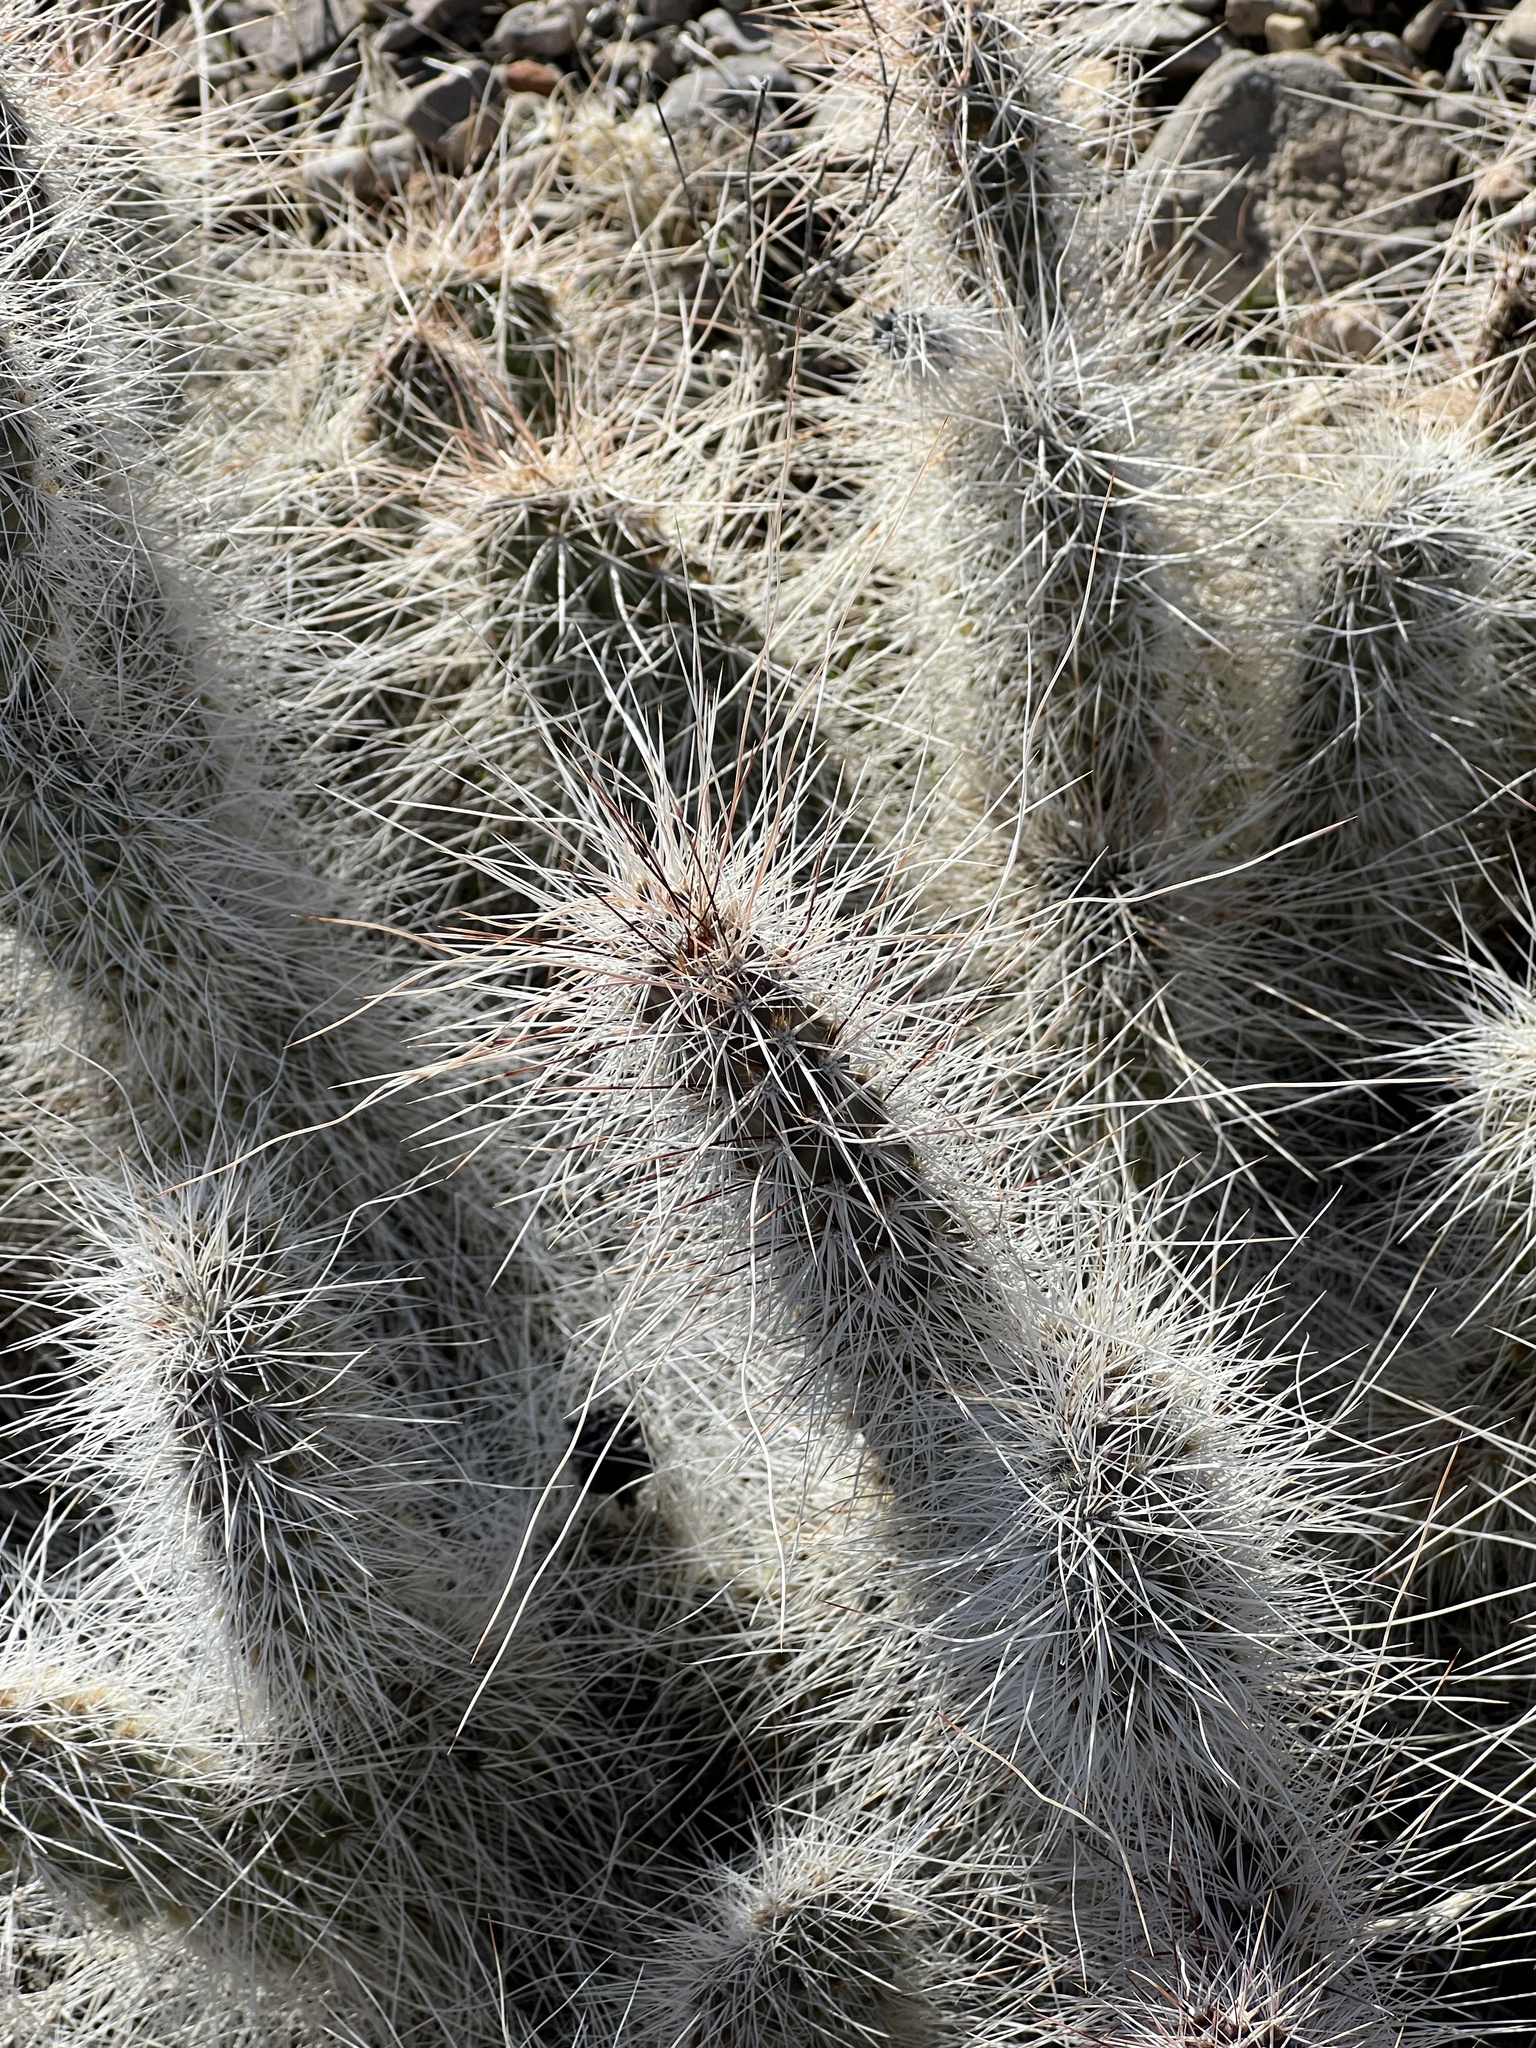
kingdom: Plantae
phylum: Tracheophyta
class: Magnoliopsida
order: Caryophyllales
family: Cactaceae
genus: Opuntia
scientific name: Opuntia polyacantha
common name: Plains prickly-pear
